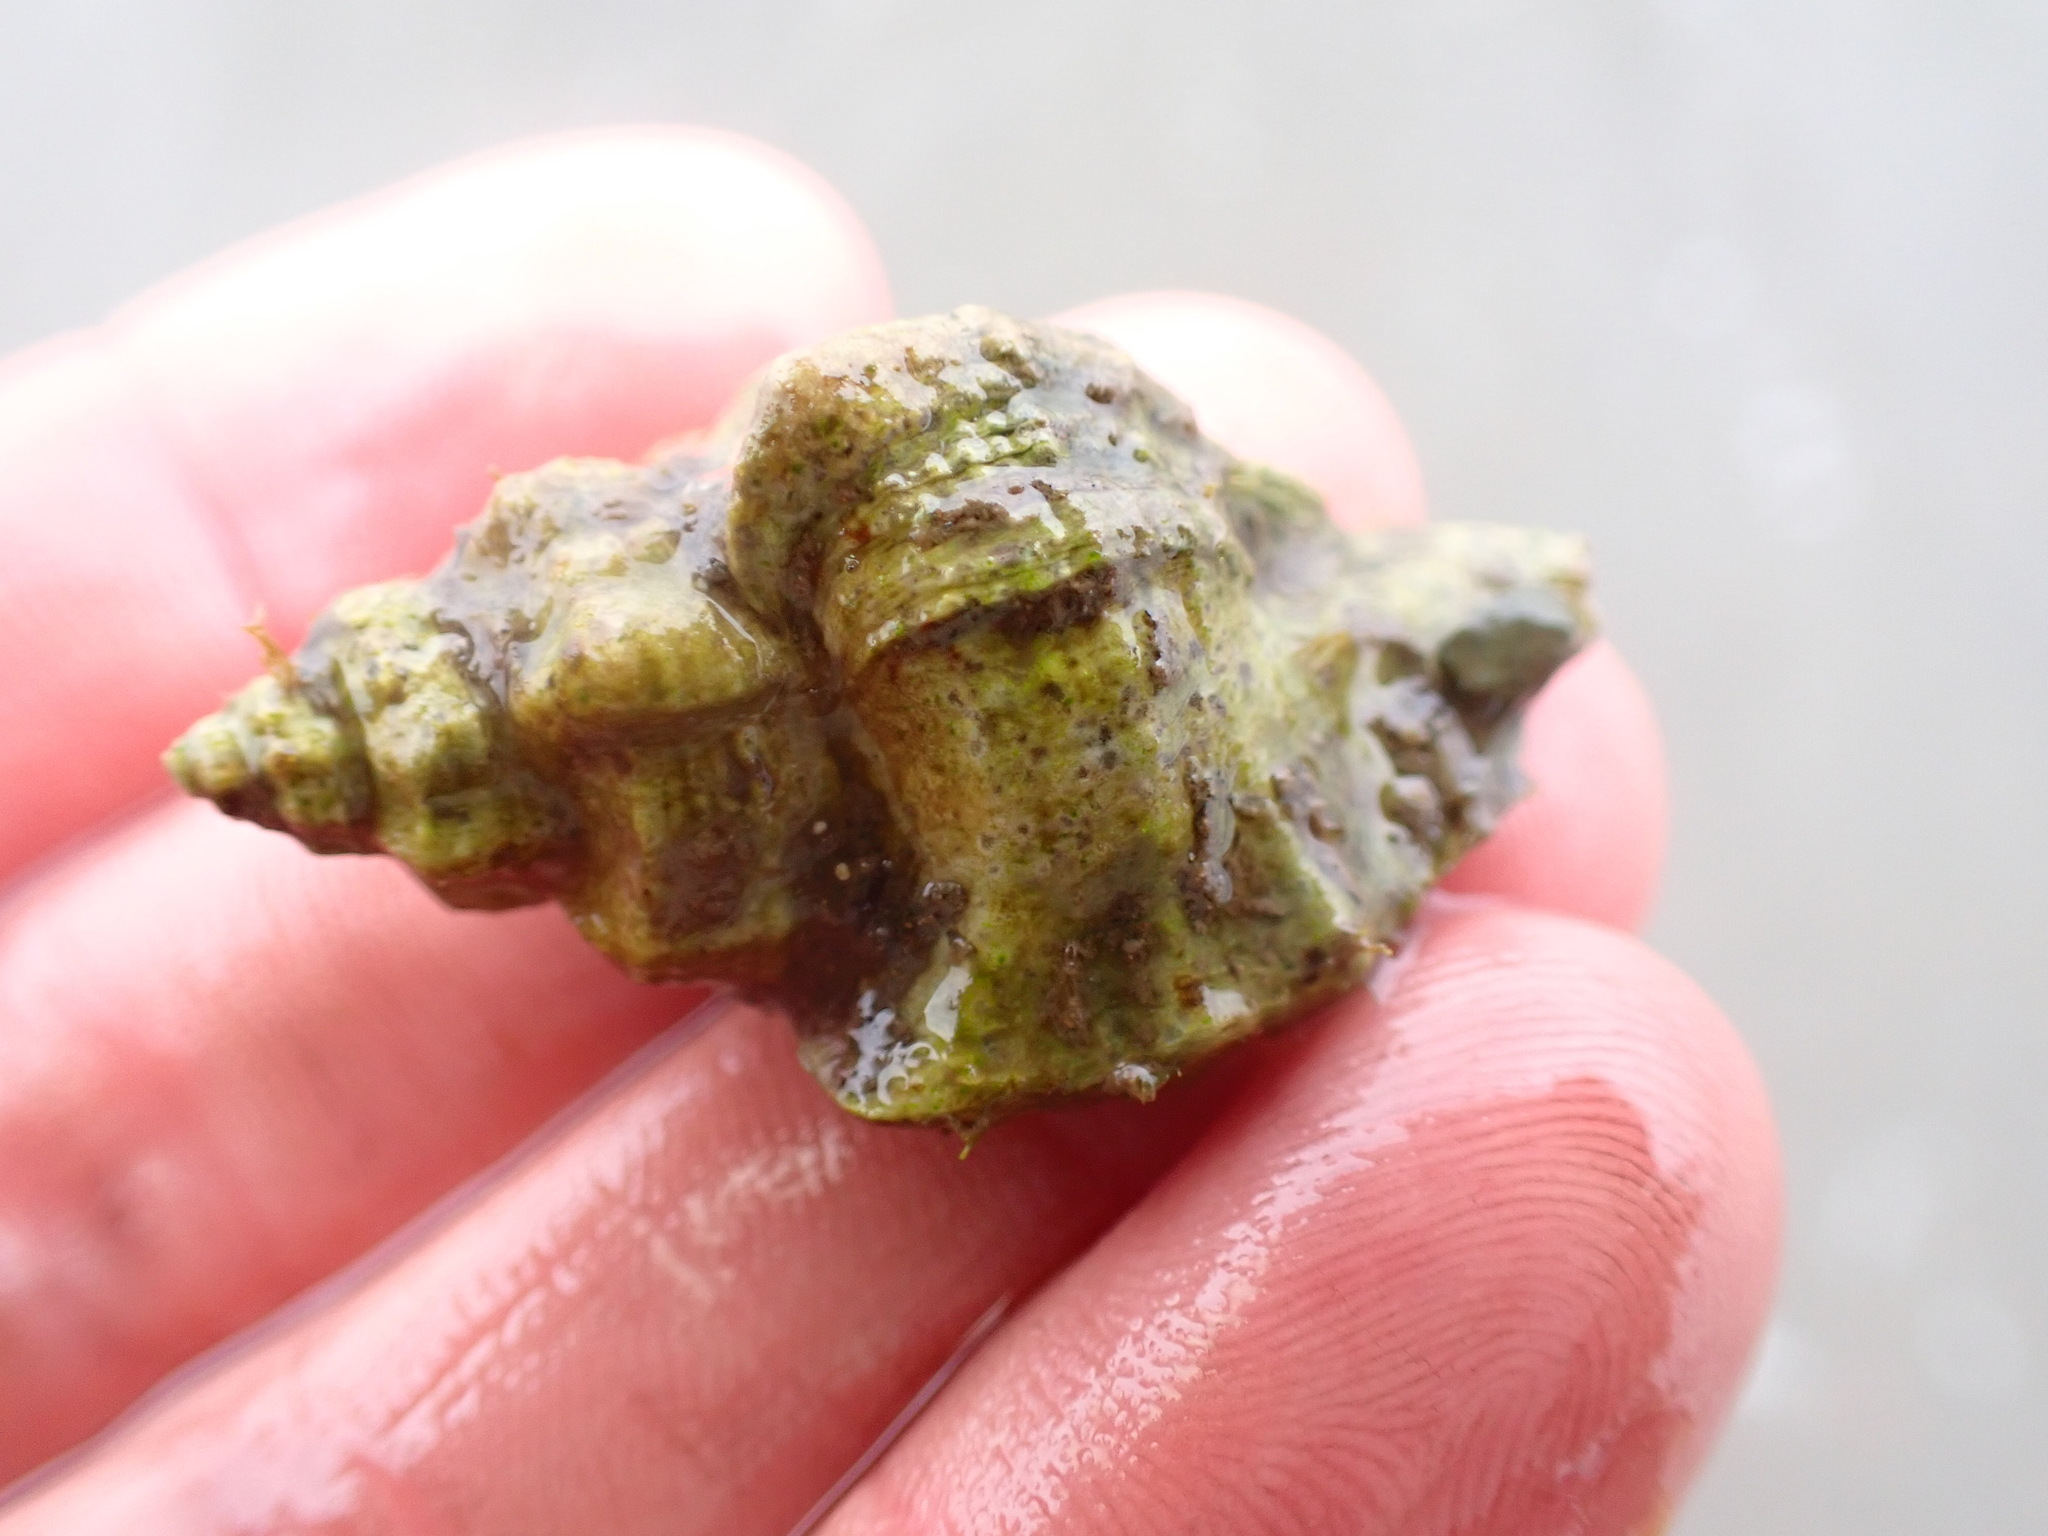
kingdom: Animalia
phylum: Mollusca
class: Gastropoda
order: Neogastropoda
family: Muricidae
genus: Ocinebrellus
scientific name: Ocinebrellus inornatus
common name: Asian drill snail
